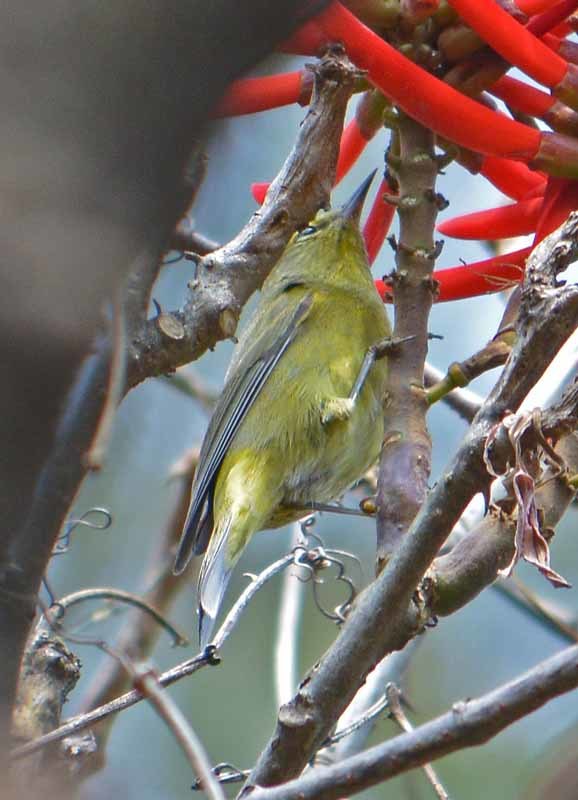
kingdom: Animalia
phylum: Chordata
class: Aves
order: Passeriformes
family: Parulidae
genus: Leiothlypis
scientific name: Leiothlypis celata
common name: Orange-crowned warbler
